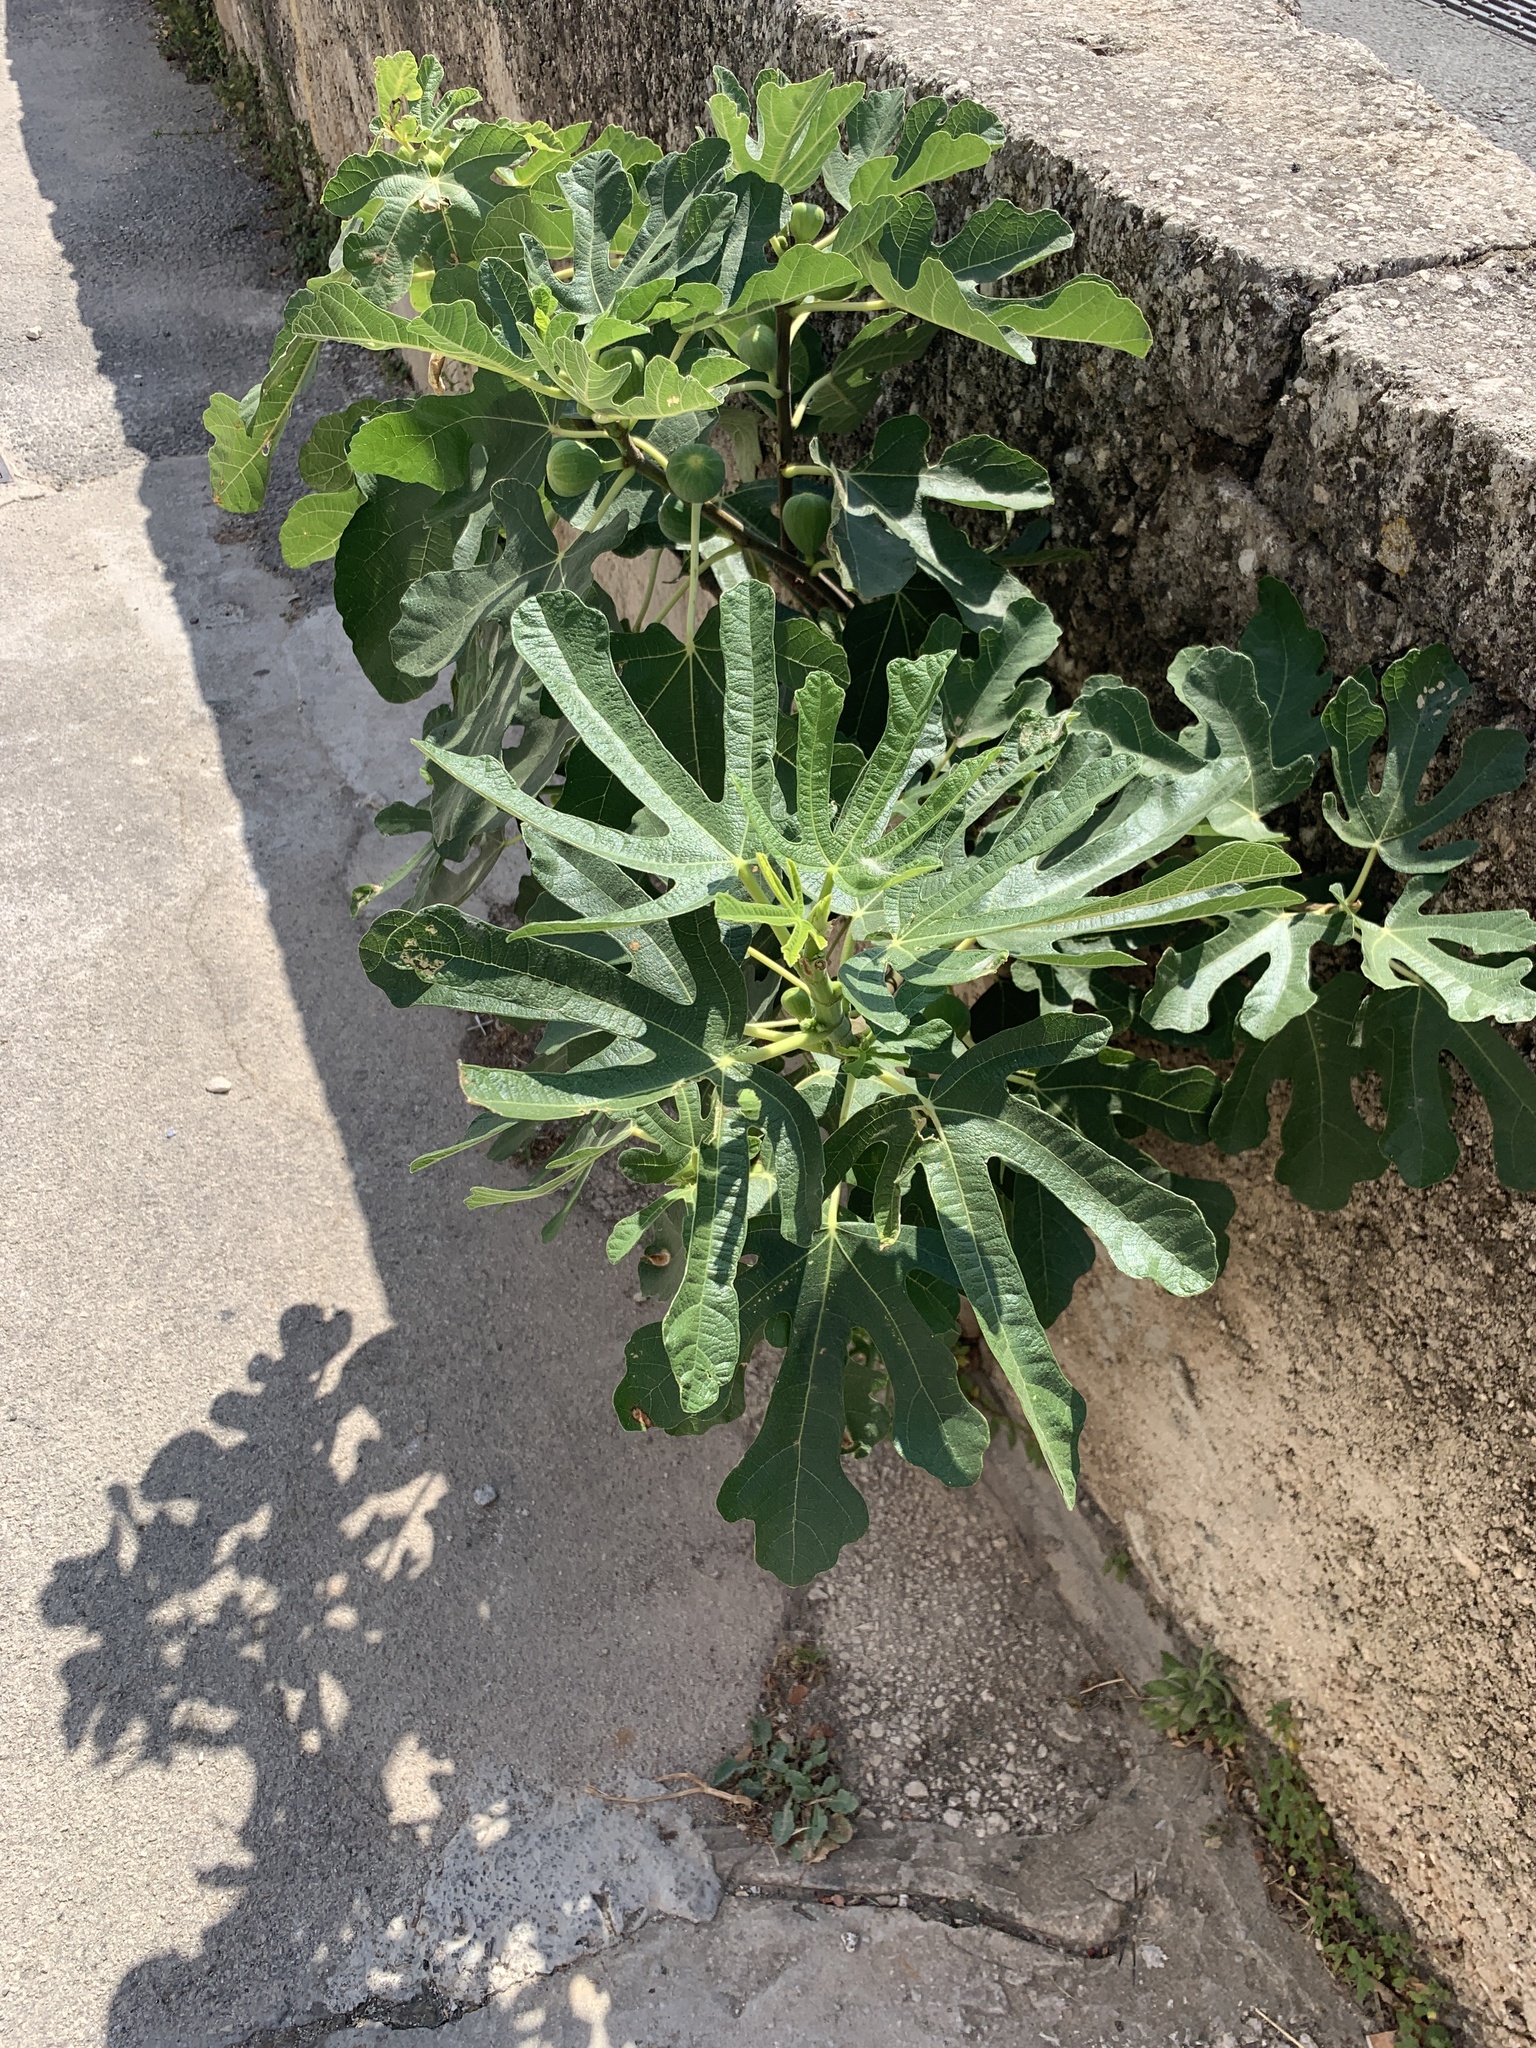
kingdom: Plantae
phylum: Tracheophyta
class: Magnoliopsida
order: Rosales
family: Moraceae
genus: Ficus
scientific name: Ficus carica
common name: Fig
